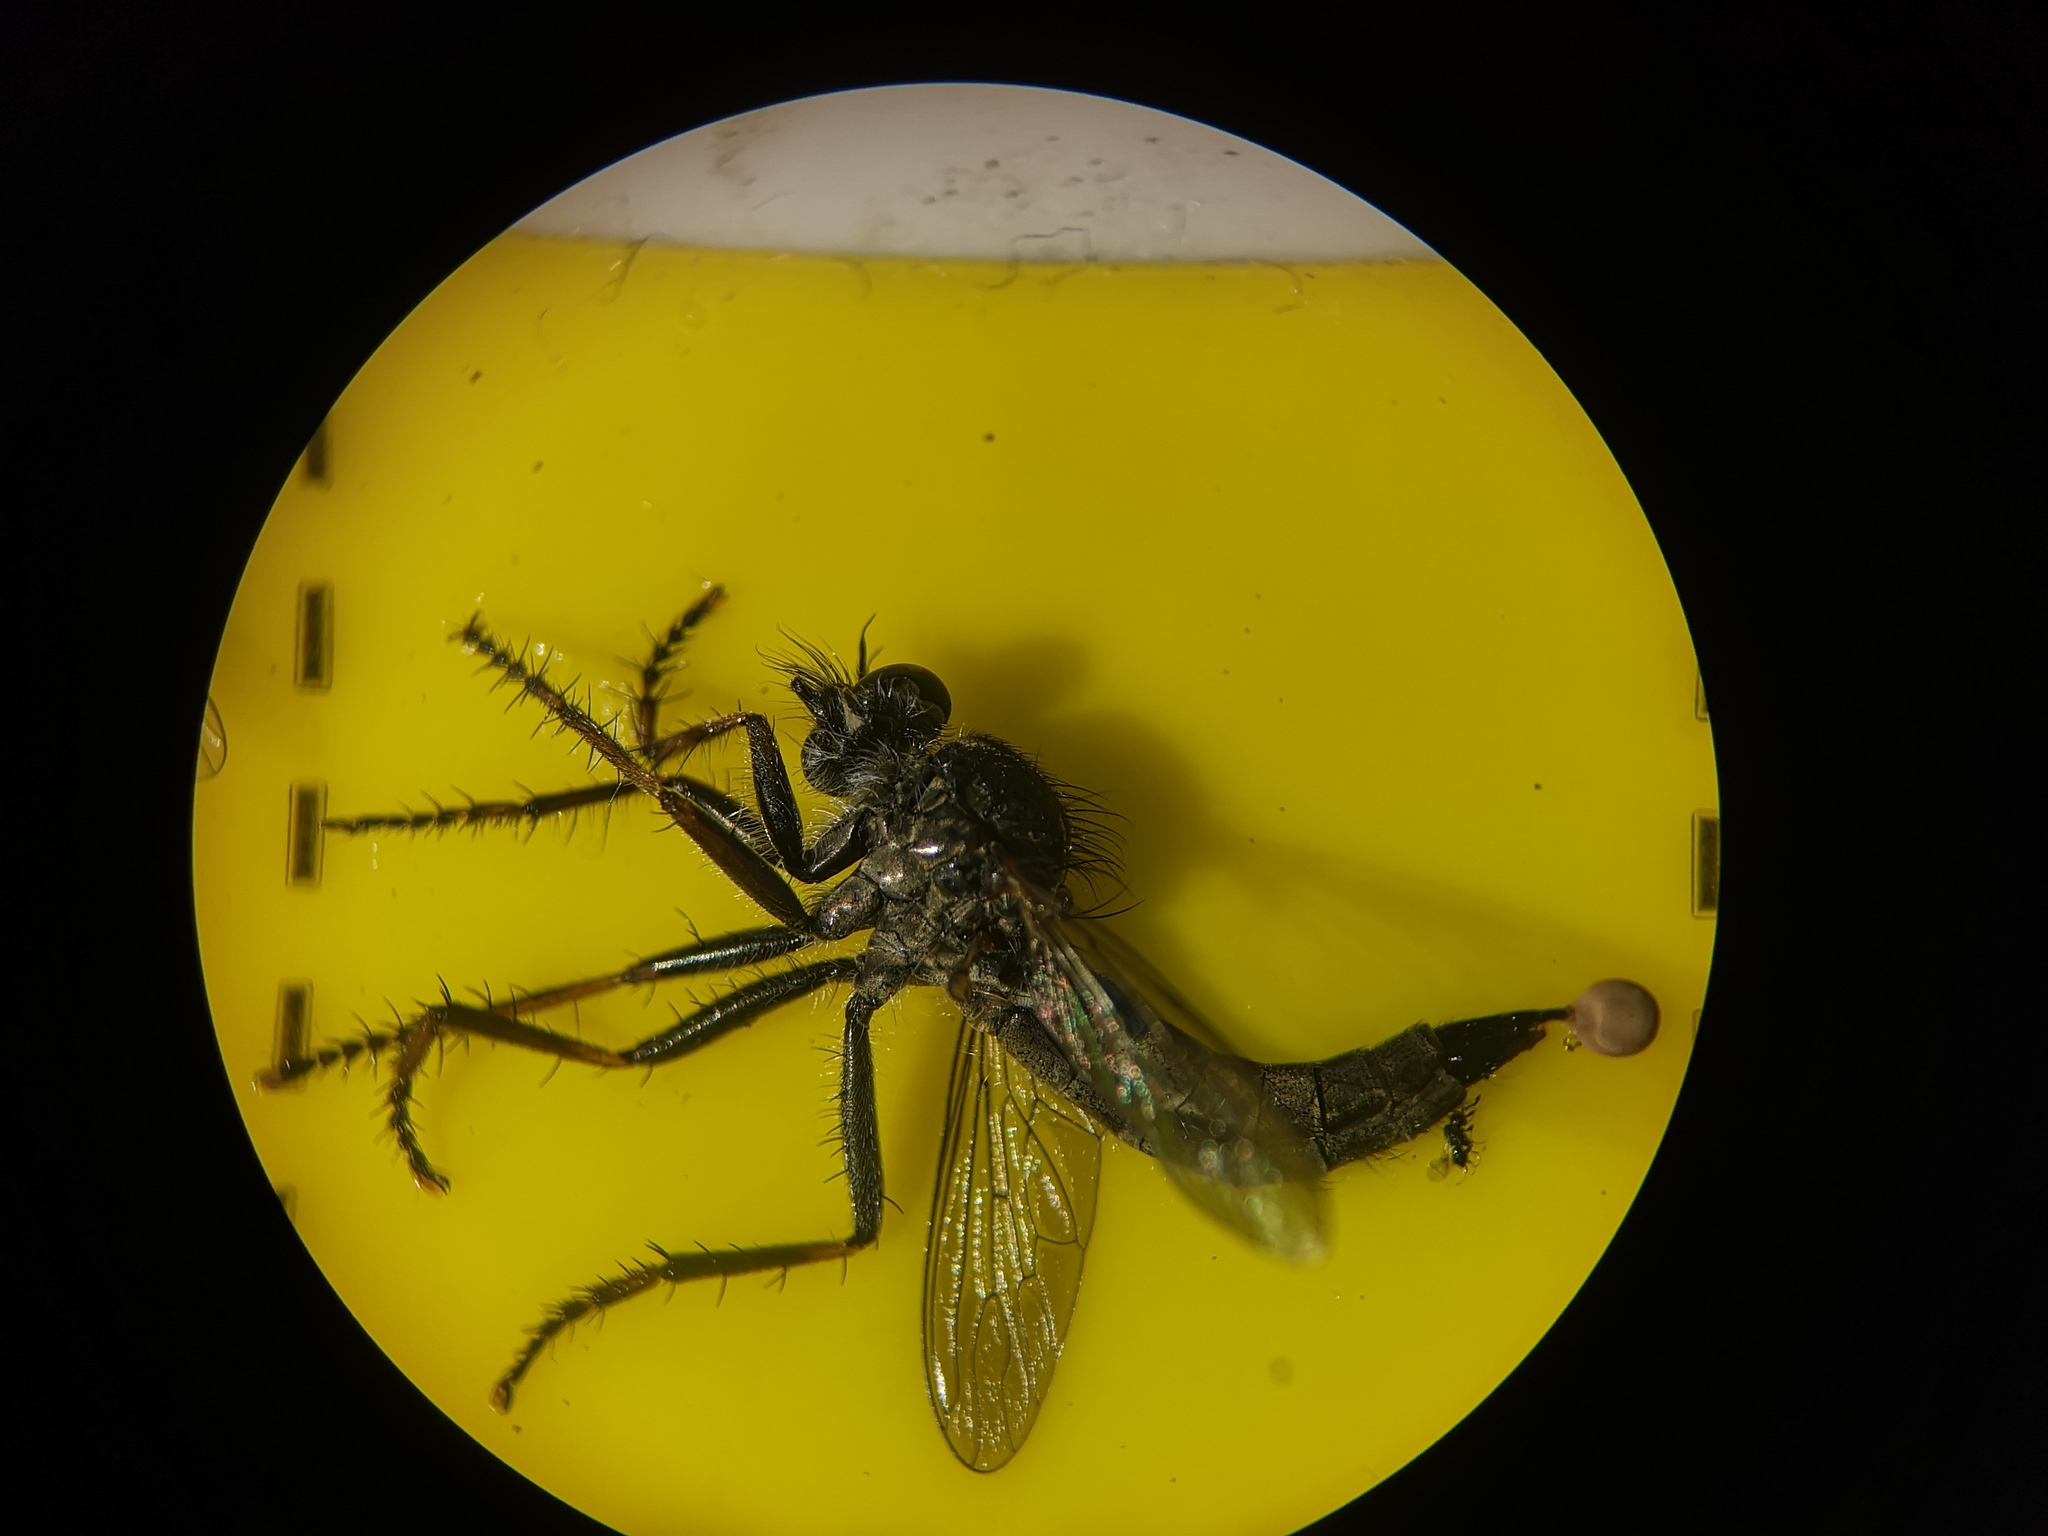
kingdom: Animalia
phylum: Arthropoda
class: Insecta
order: Diptera
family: Asilidae
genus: Machimus
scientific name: Machimus atricapillus
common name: Kite-tailed robberfly
